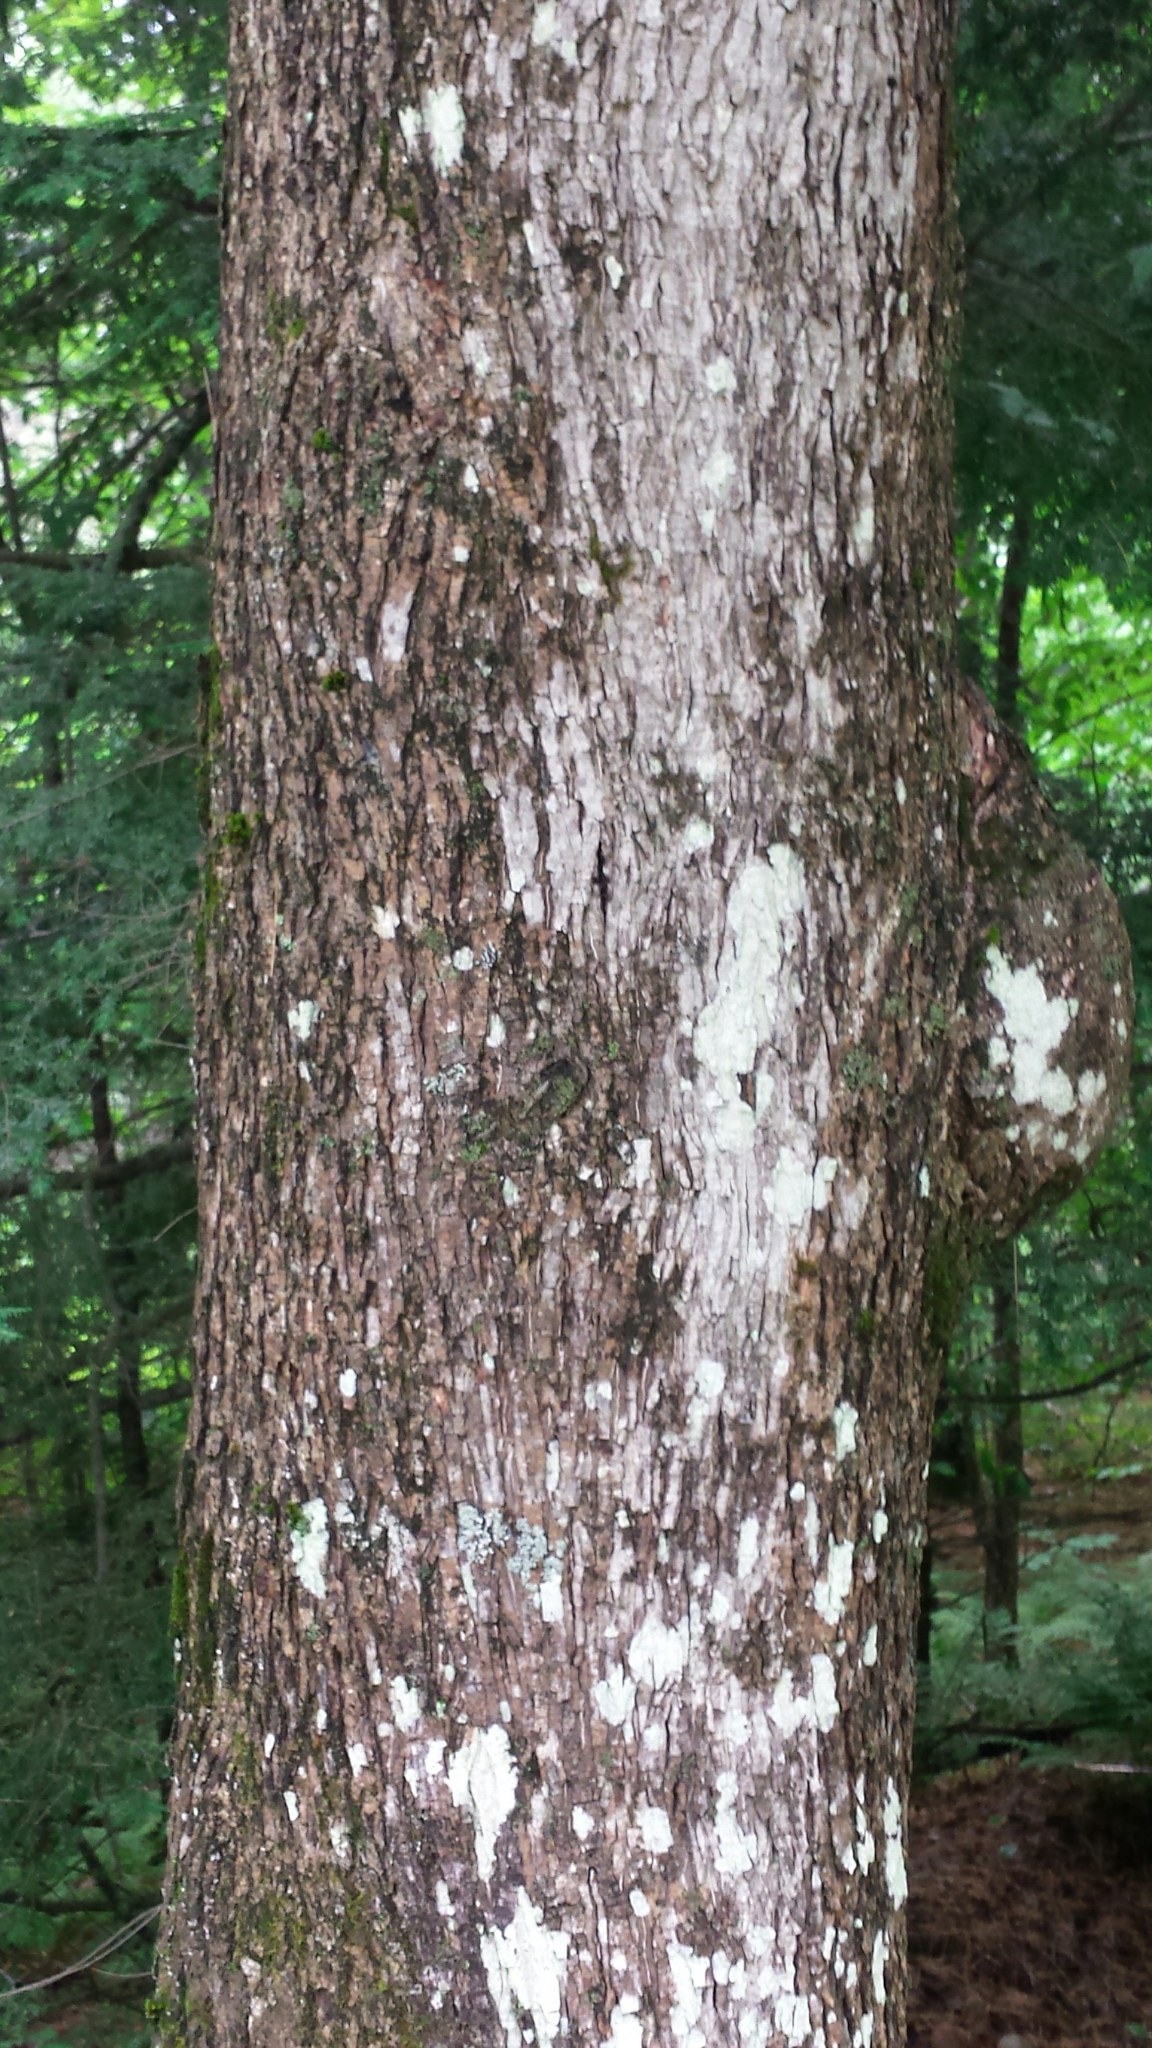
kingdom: Plantae
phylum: Tracheophyta
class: Magnoliopsida
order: Fagales
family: Juglandaceae
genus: Carya
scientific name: Carya cordiformis
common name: Bitternut hickory
